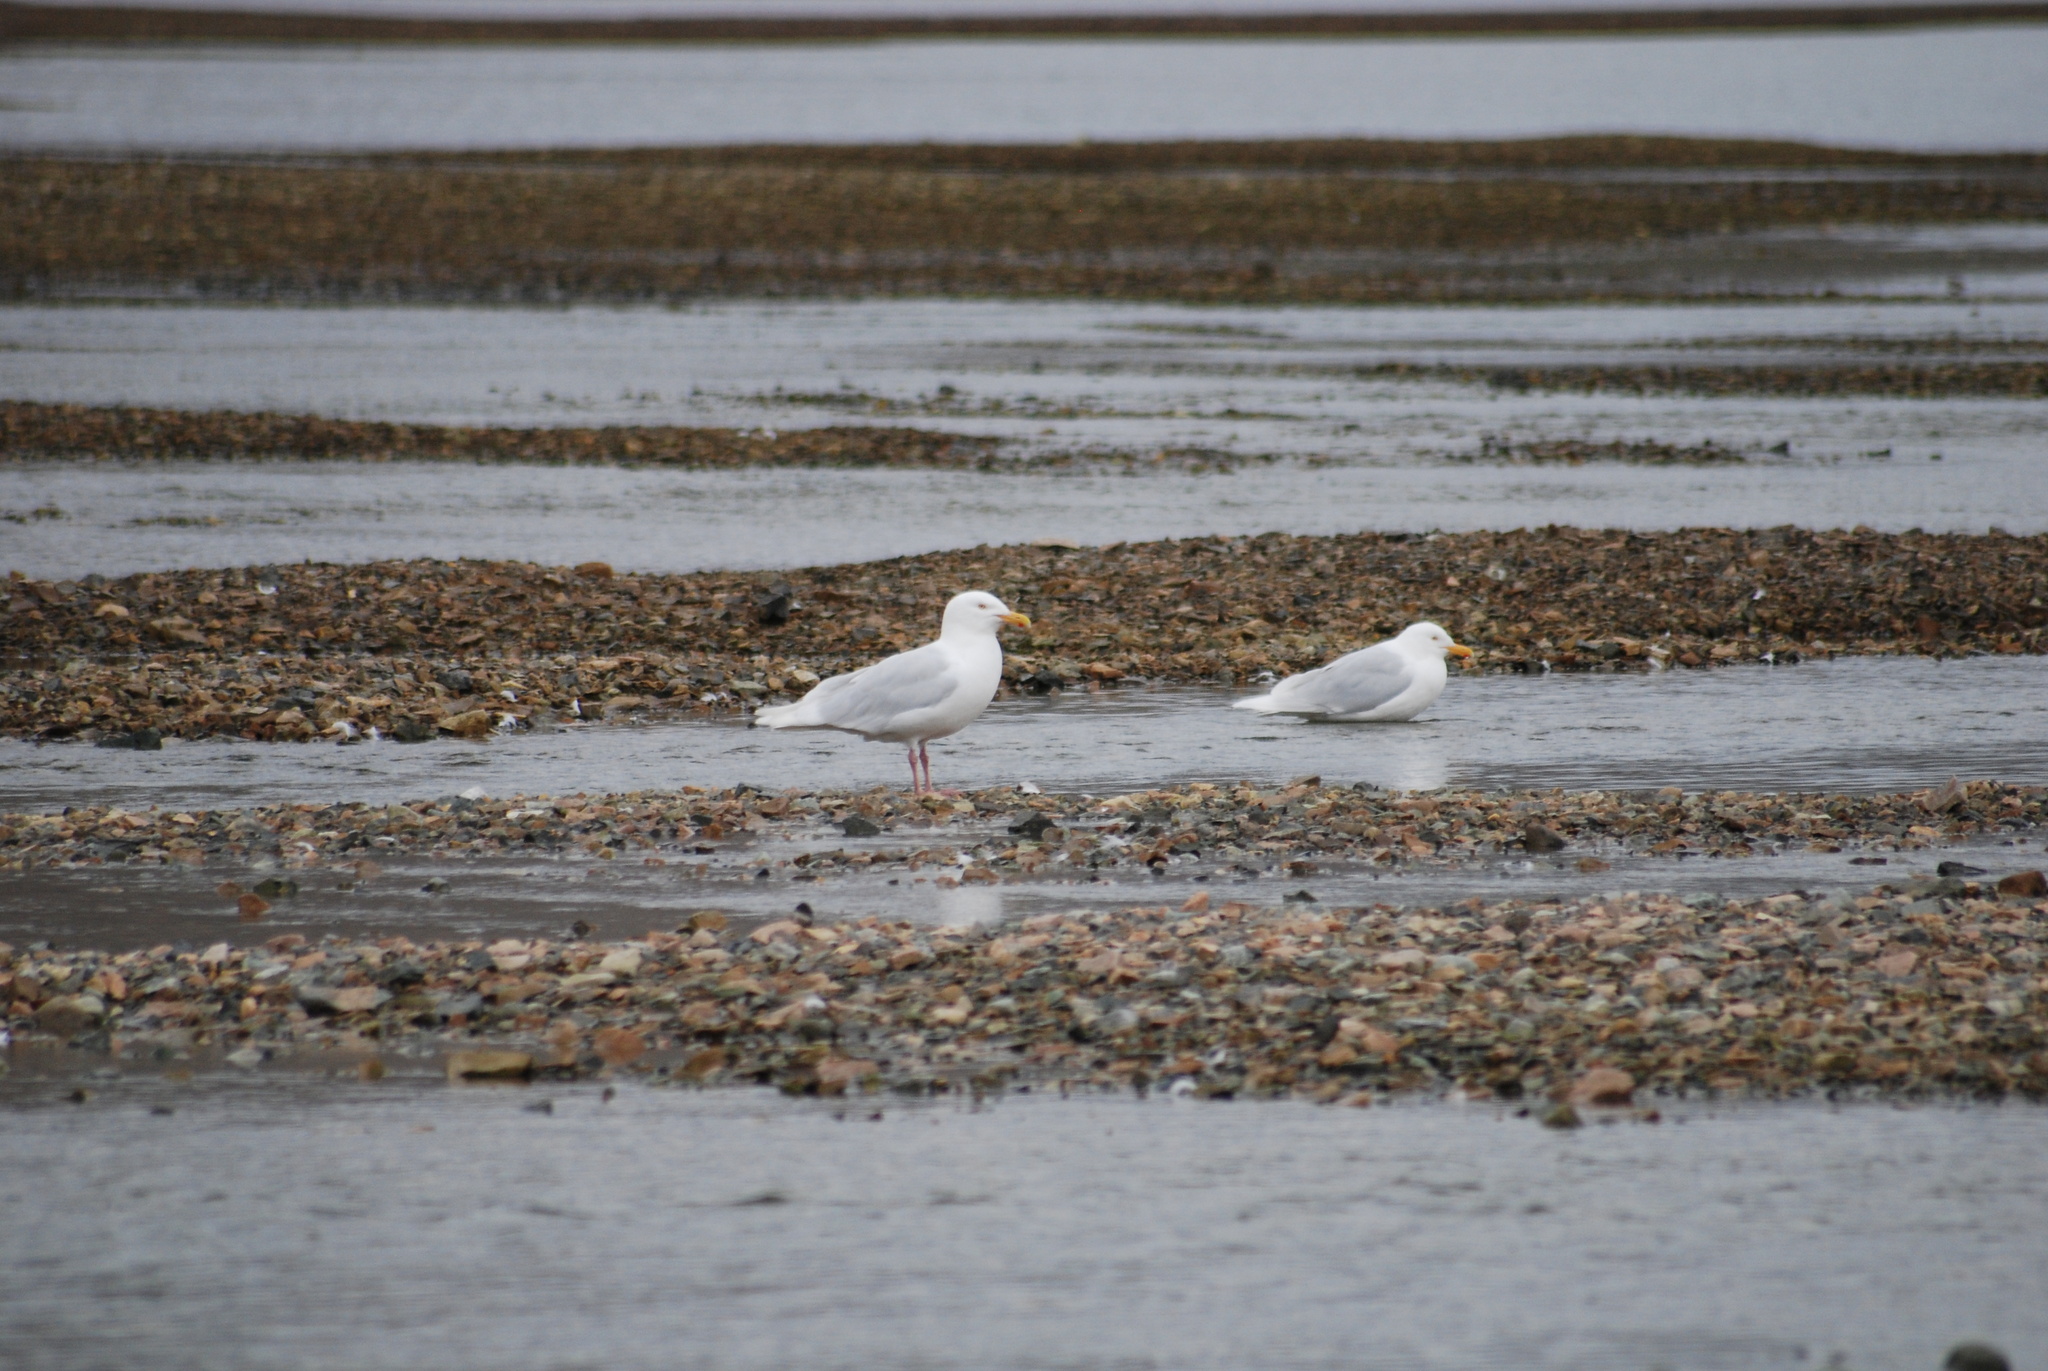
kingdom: Animalia
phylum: Chordata
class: Aves
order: Charadriiformes
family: Laridae
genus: Larus
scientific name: Larus hyperboreus
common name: Glaucous gull
